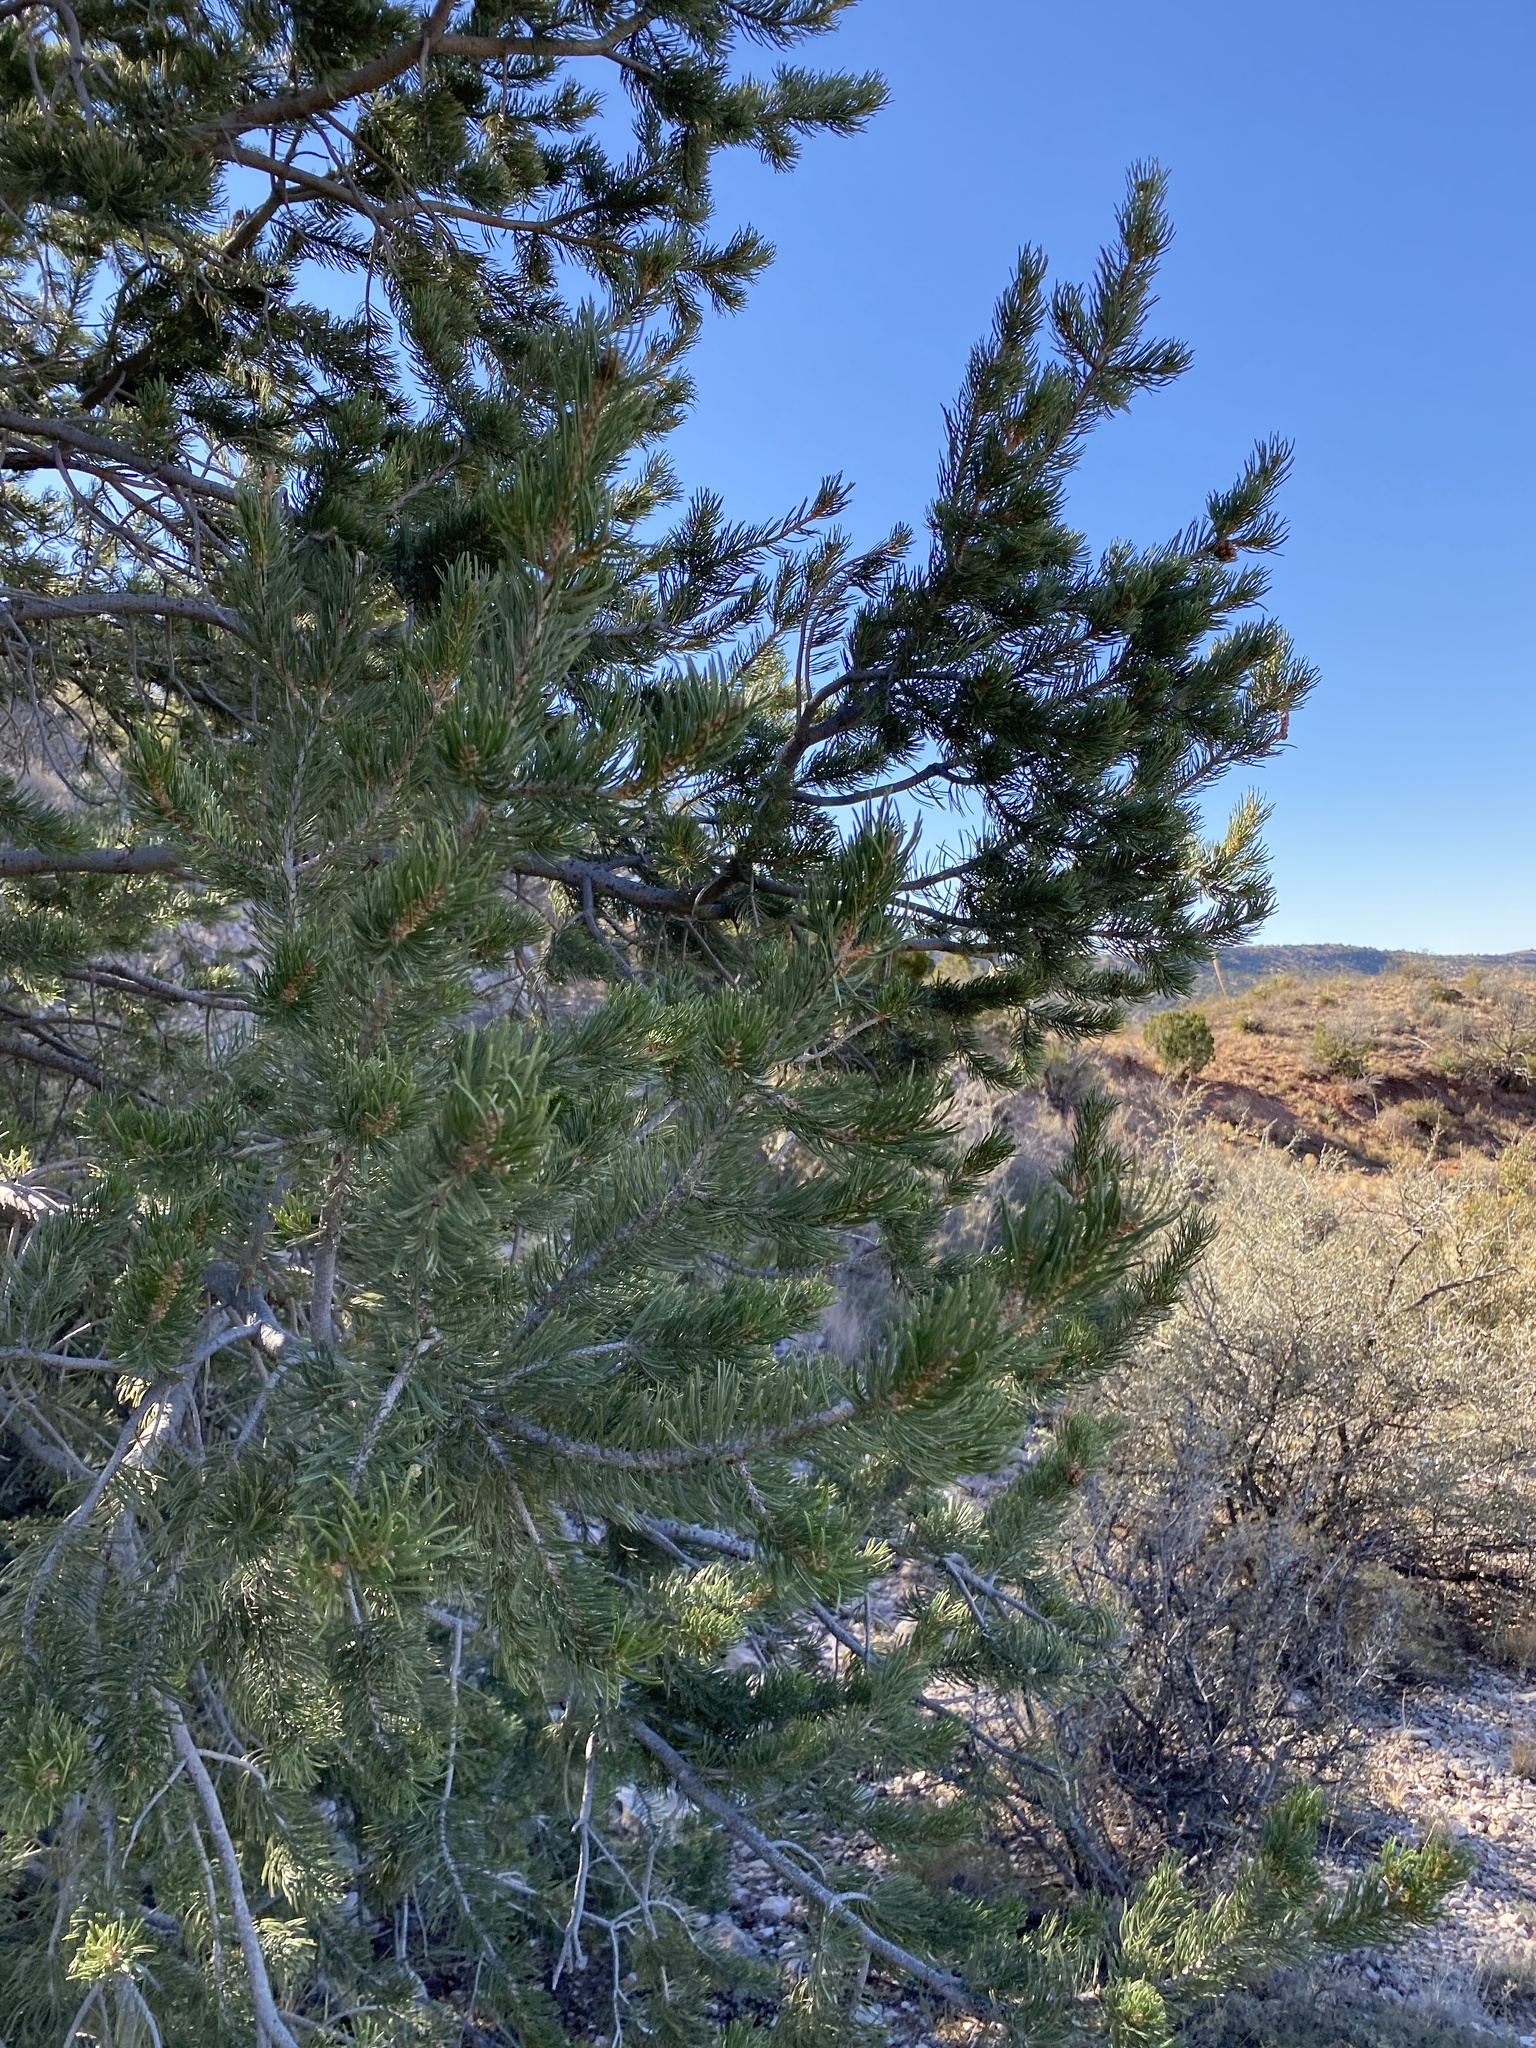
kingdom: Plantae
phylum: Tracheophyta
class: Pinopsida
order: Pinales
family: Pinaceae
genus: Pinus
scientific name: Pinus edulis
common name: Colorado pinyon
